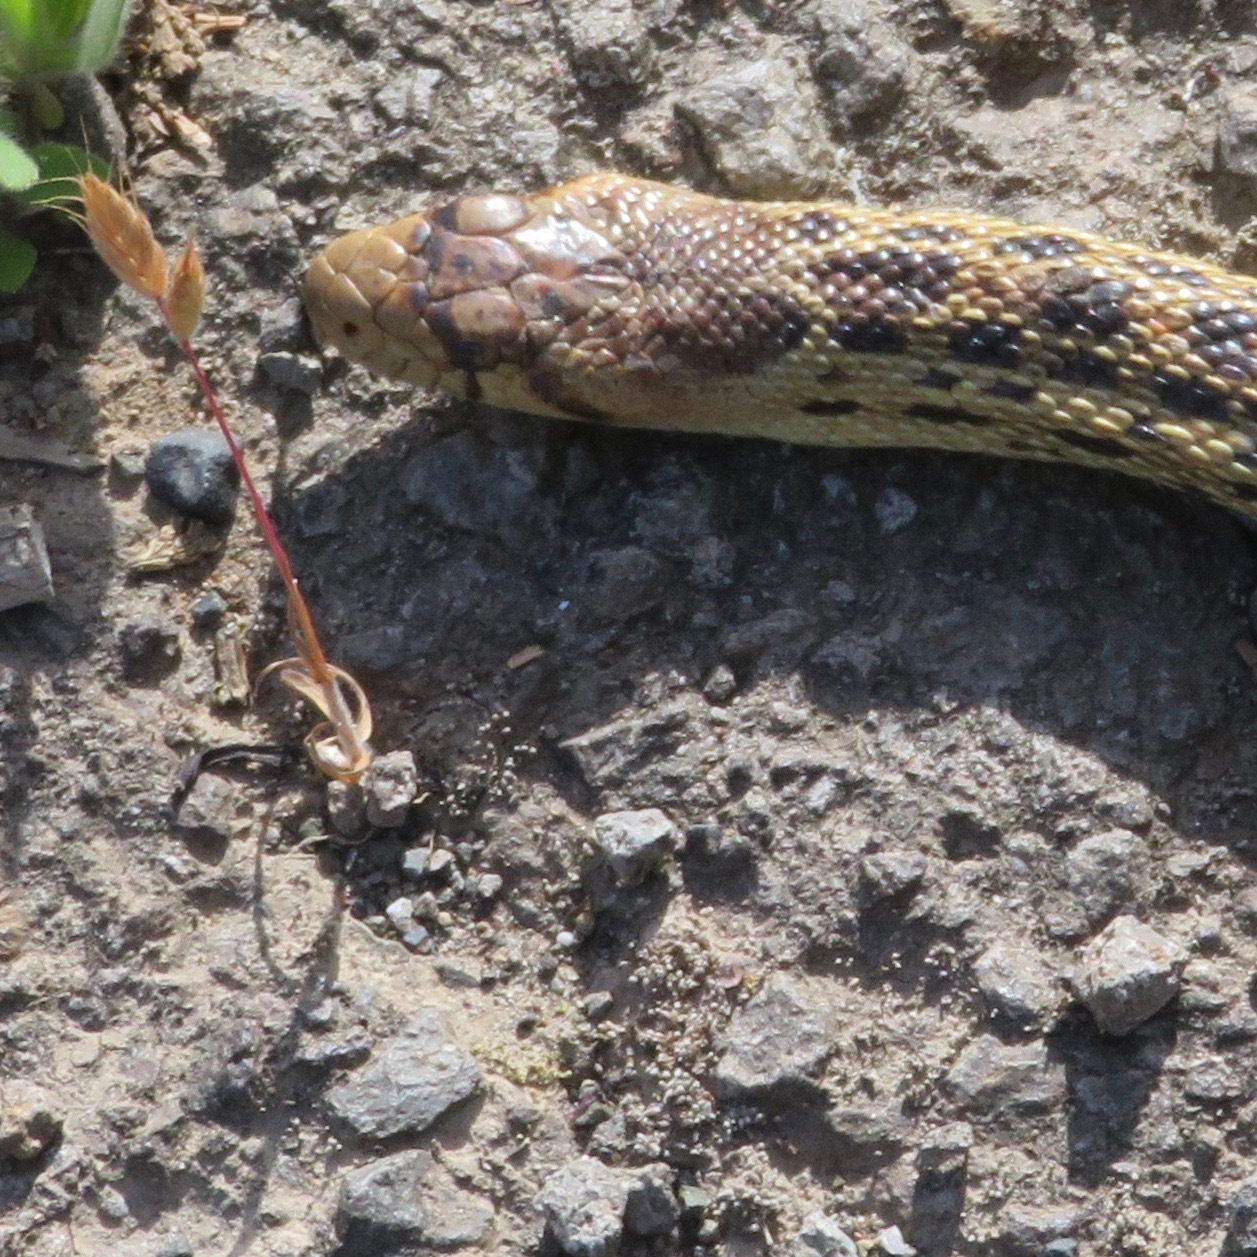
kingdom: Animalia
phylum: Chordata
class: Squamata
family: Colubridae
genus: Pituophis
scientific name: Pituophis catenifer
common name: Gopher snake
